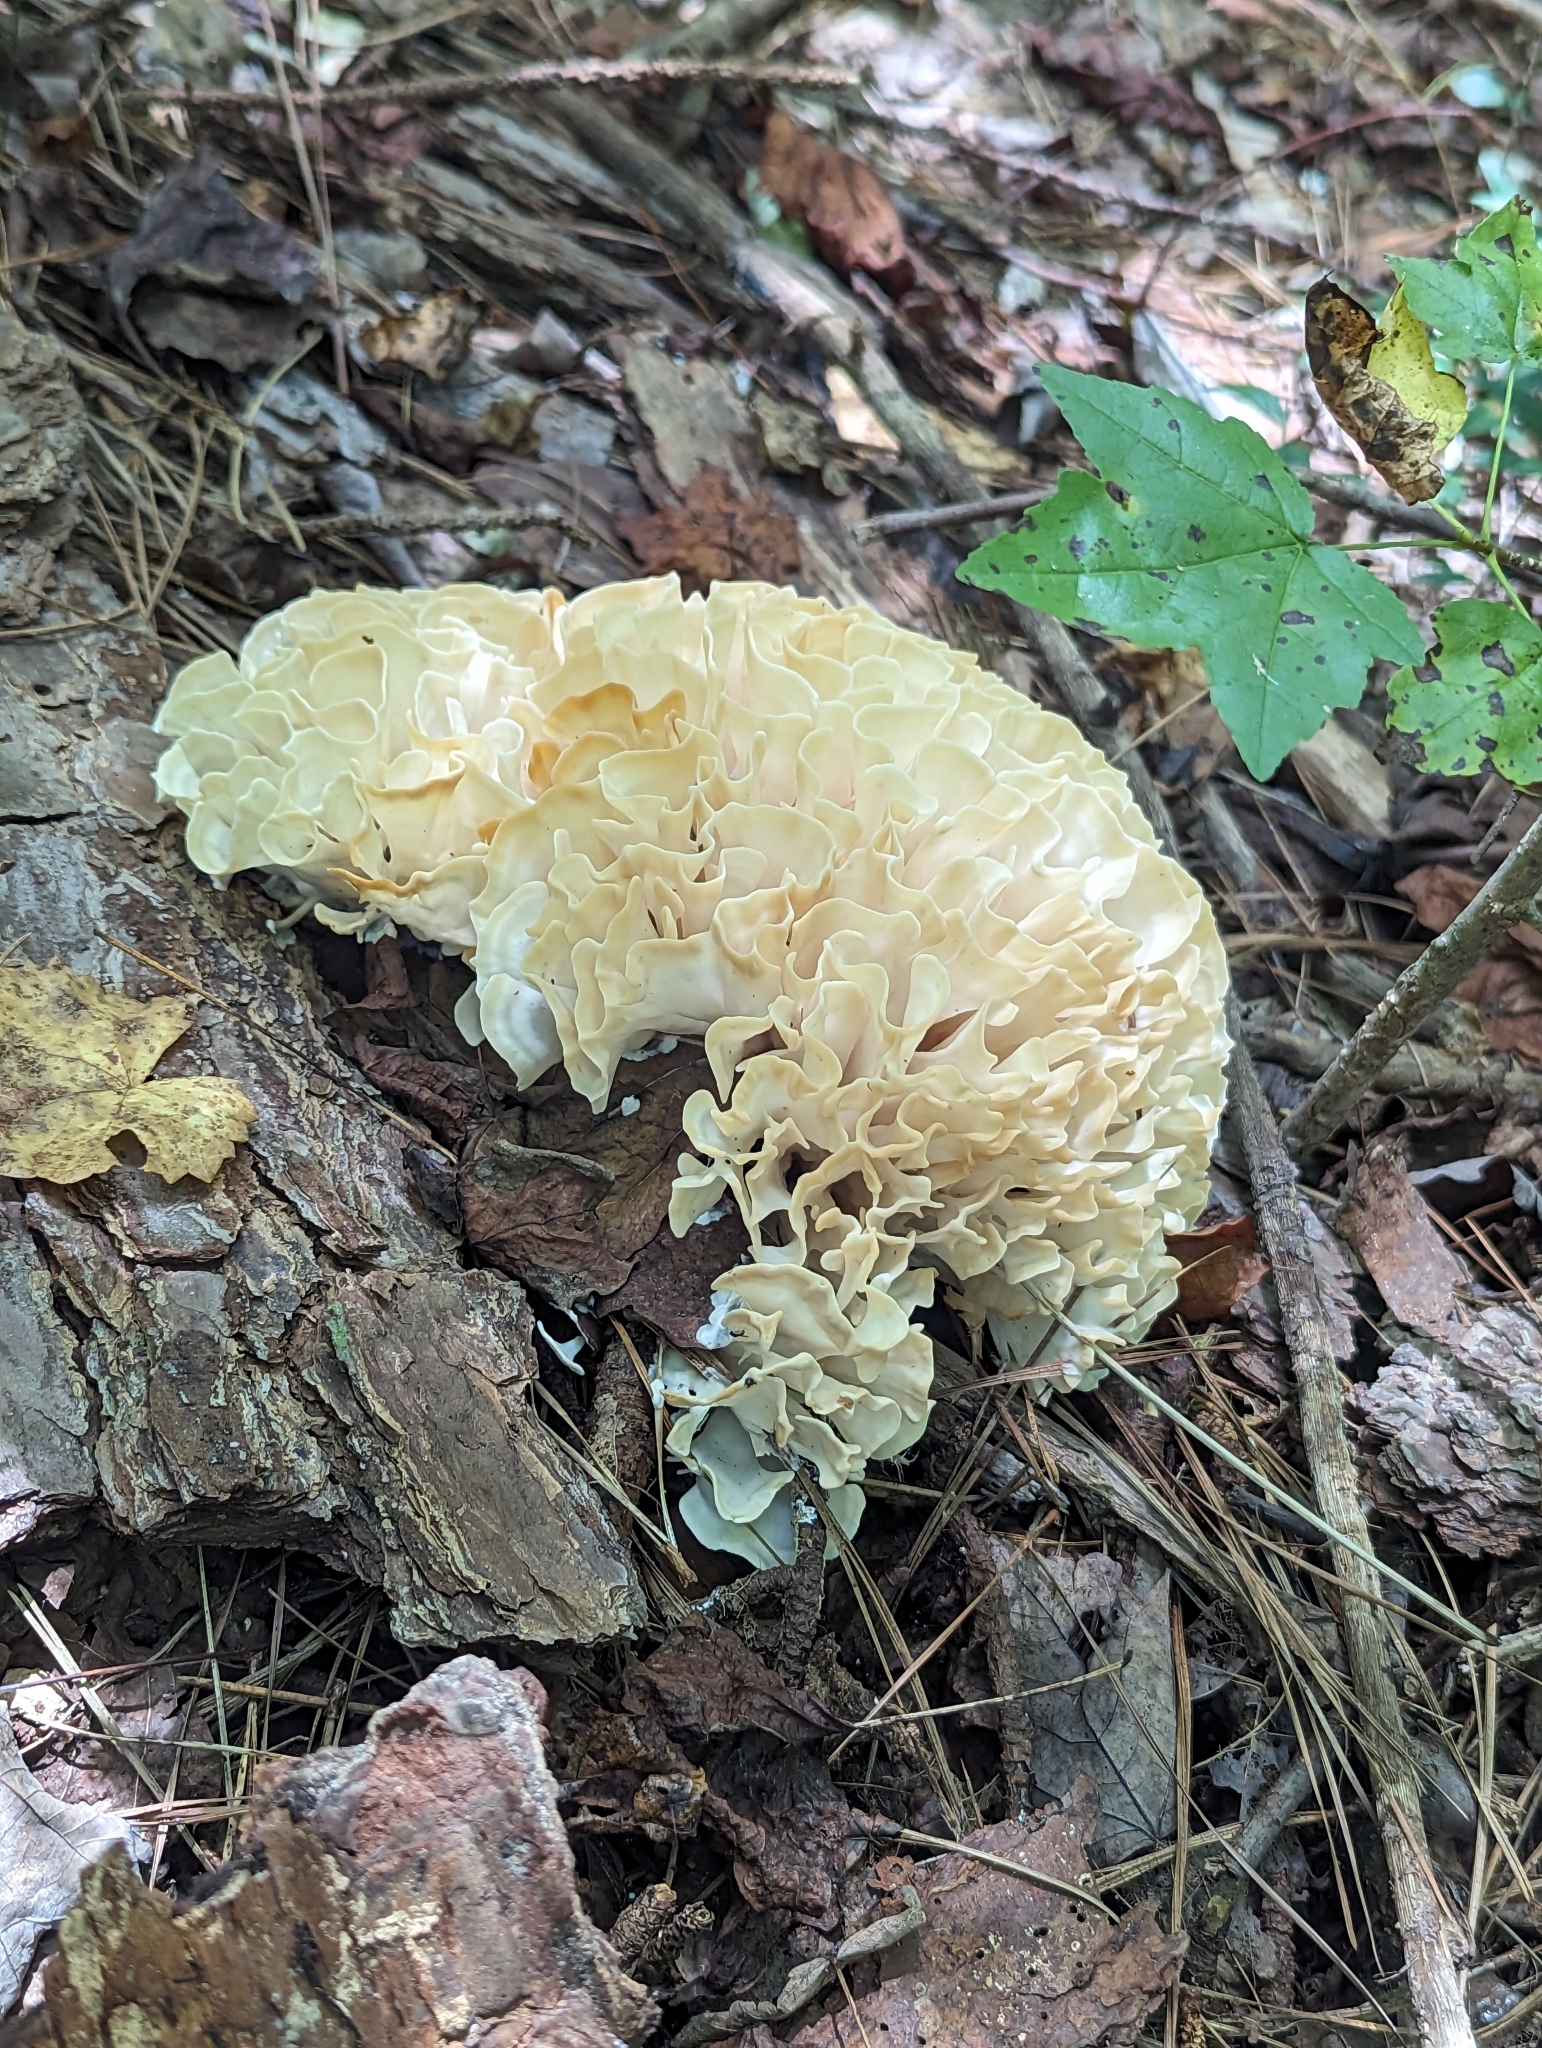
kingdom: Fungi
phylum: Basidiomycota
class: Agaricomycetes
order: Polyporales
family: Sparassidaceae
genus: Sparassis
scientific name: Sparassis spathulata
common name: Eastern cauliflower mushroom
